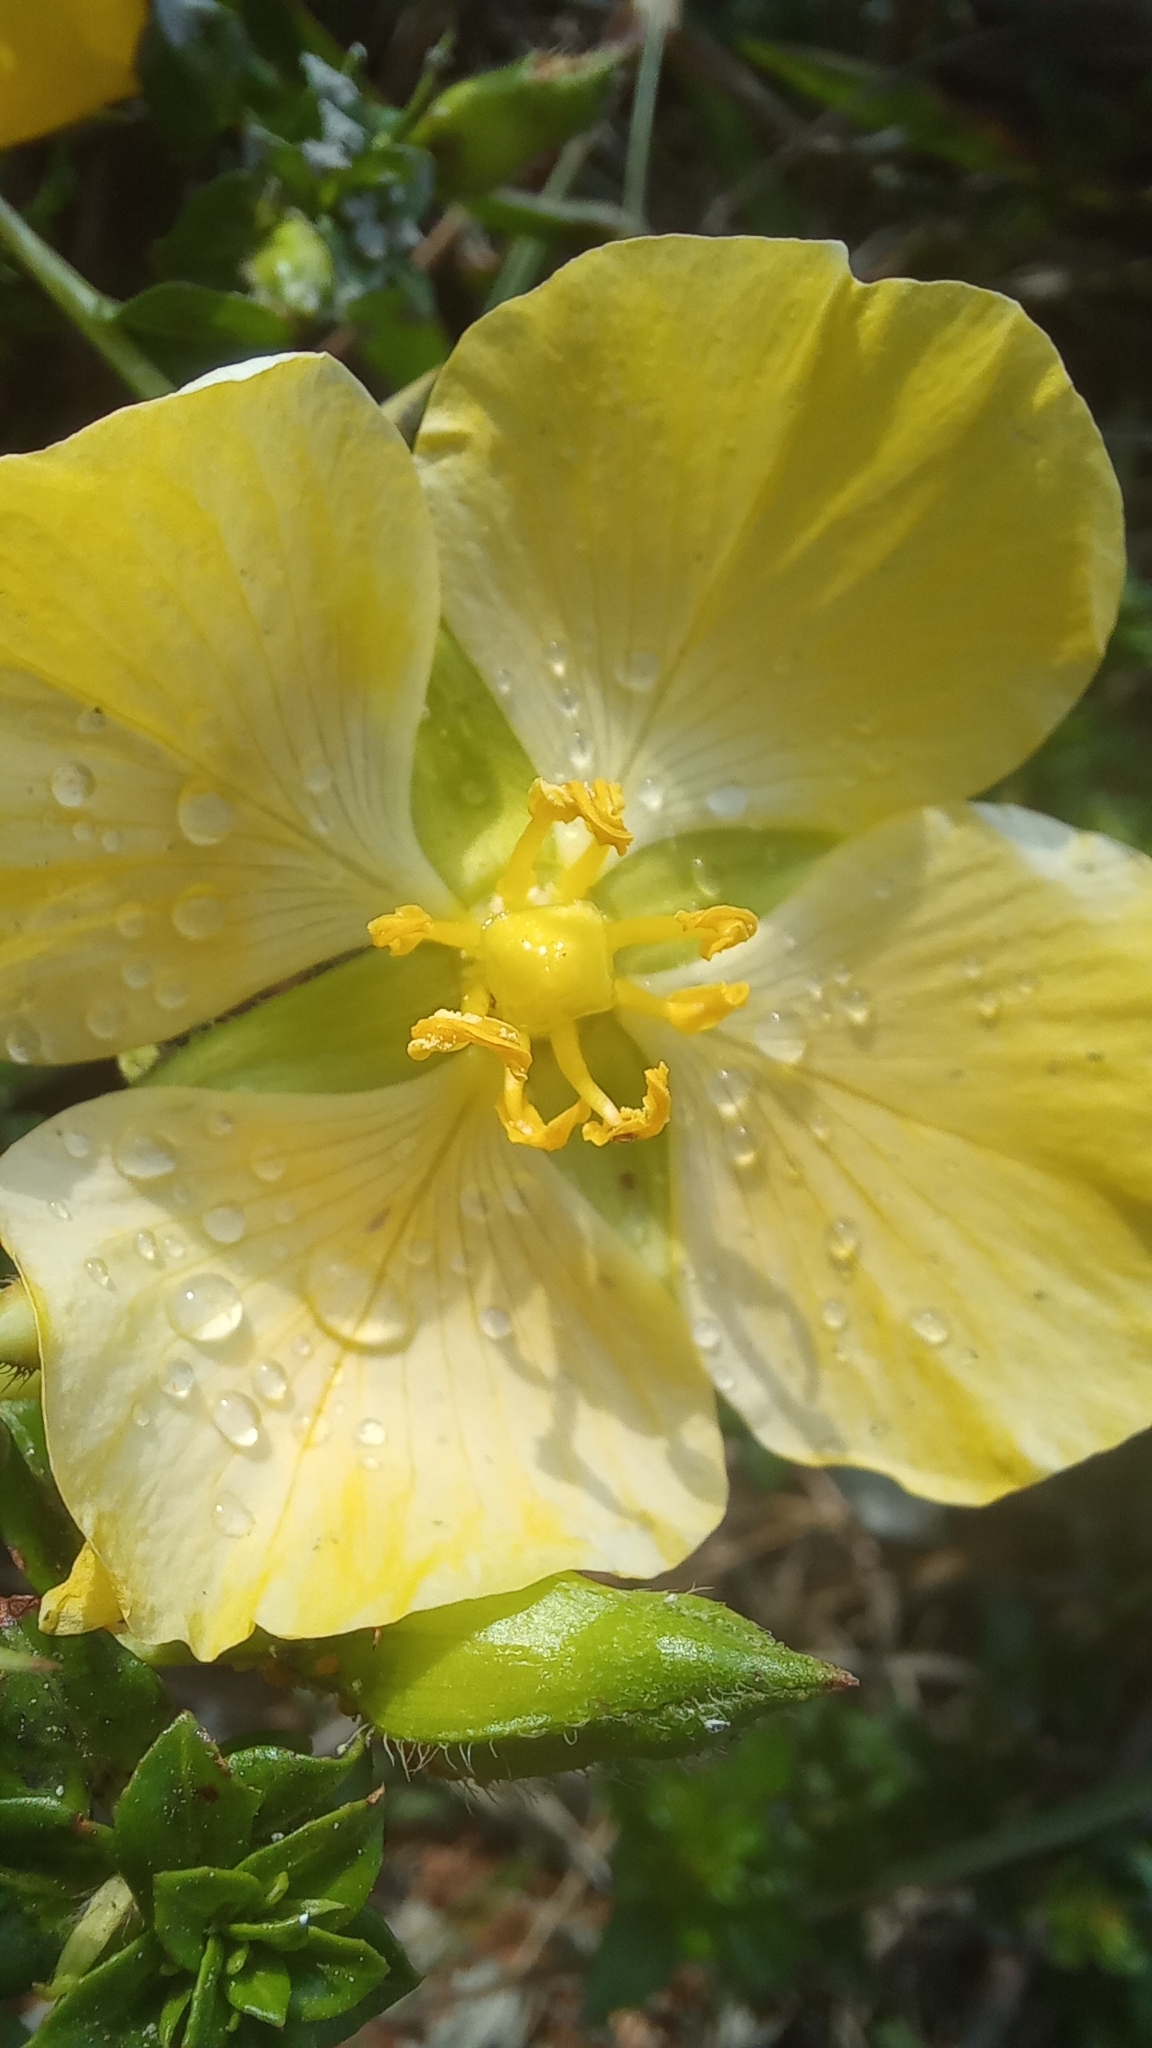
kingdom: Plantae
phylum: Tracheophyta
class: Magnoliopsida
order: Myrtales
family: Onagraceae
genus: Ludwigia
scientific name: Ludwigia multinervia
